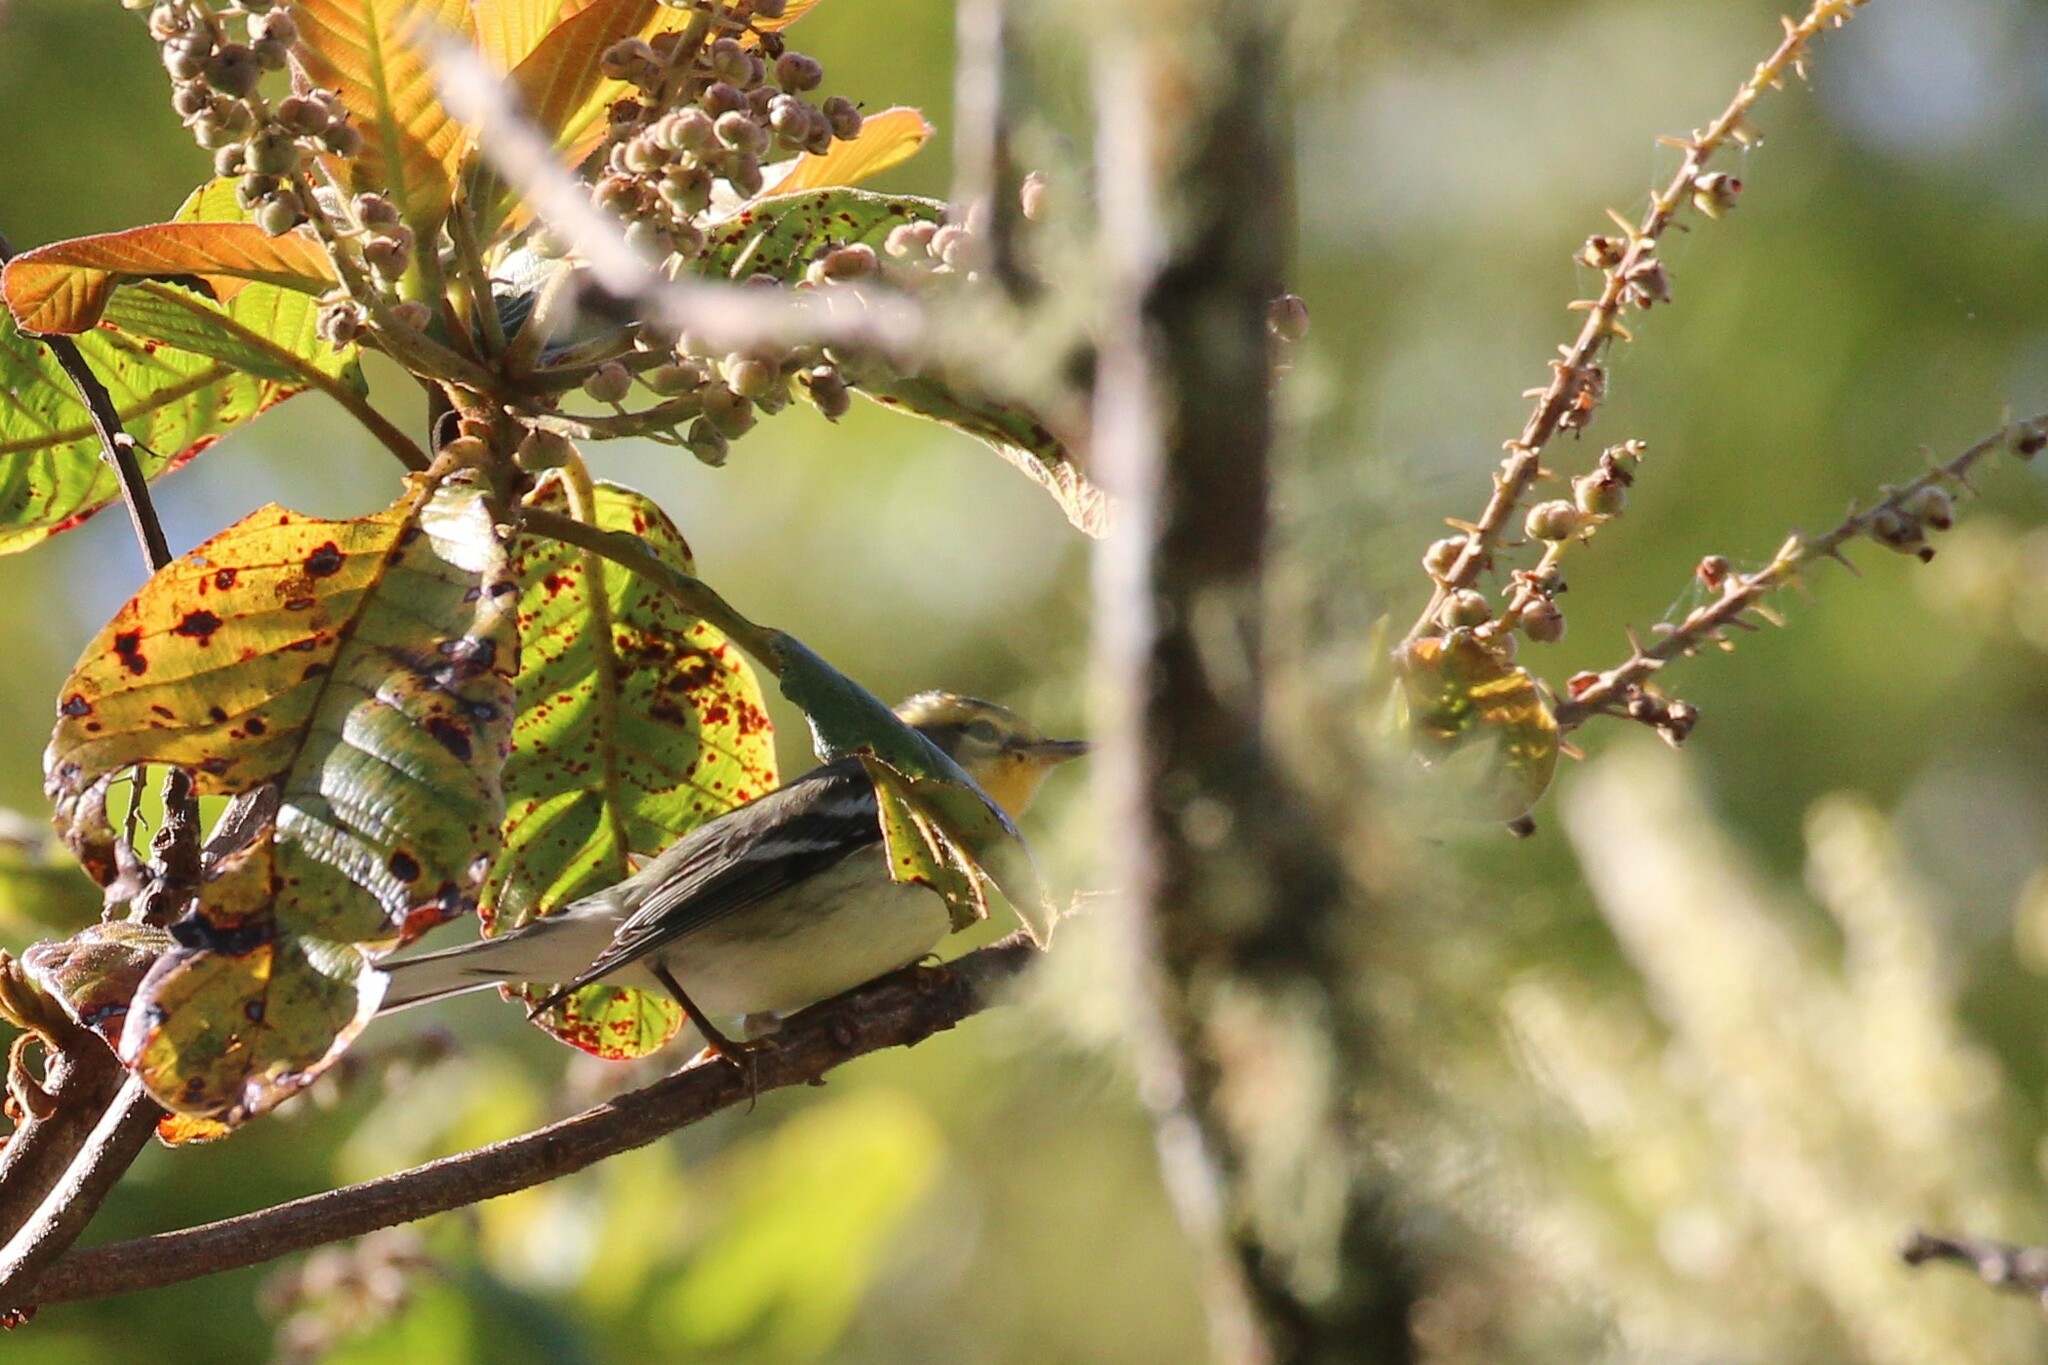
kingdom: Animalia
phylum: Chordata
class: Aves
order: Passeriformes
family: Parulidae
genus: Setophaga
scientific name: Setophaga fusca
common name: Blackburnian warbler
